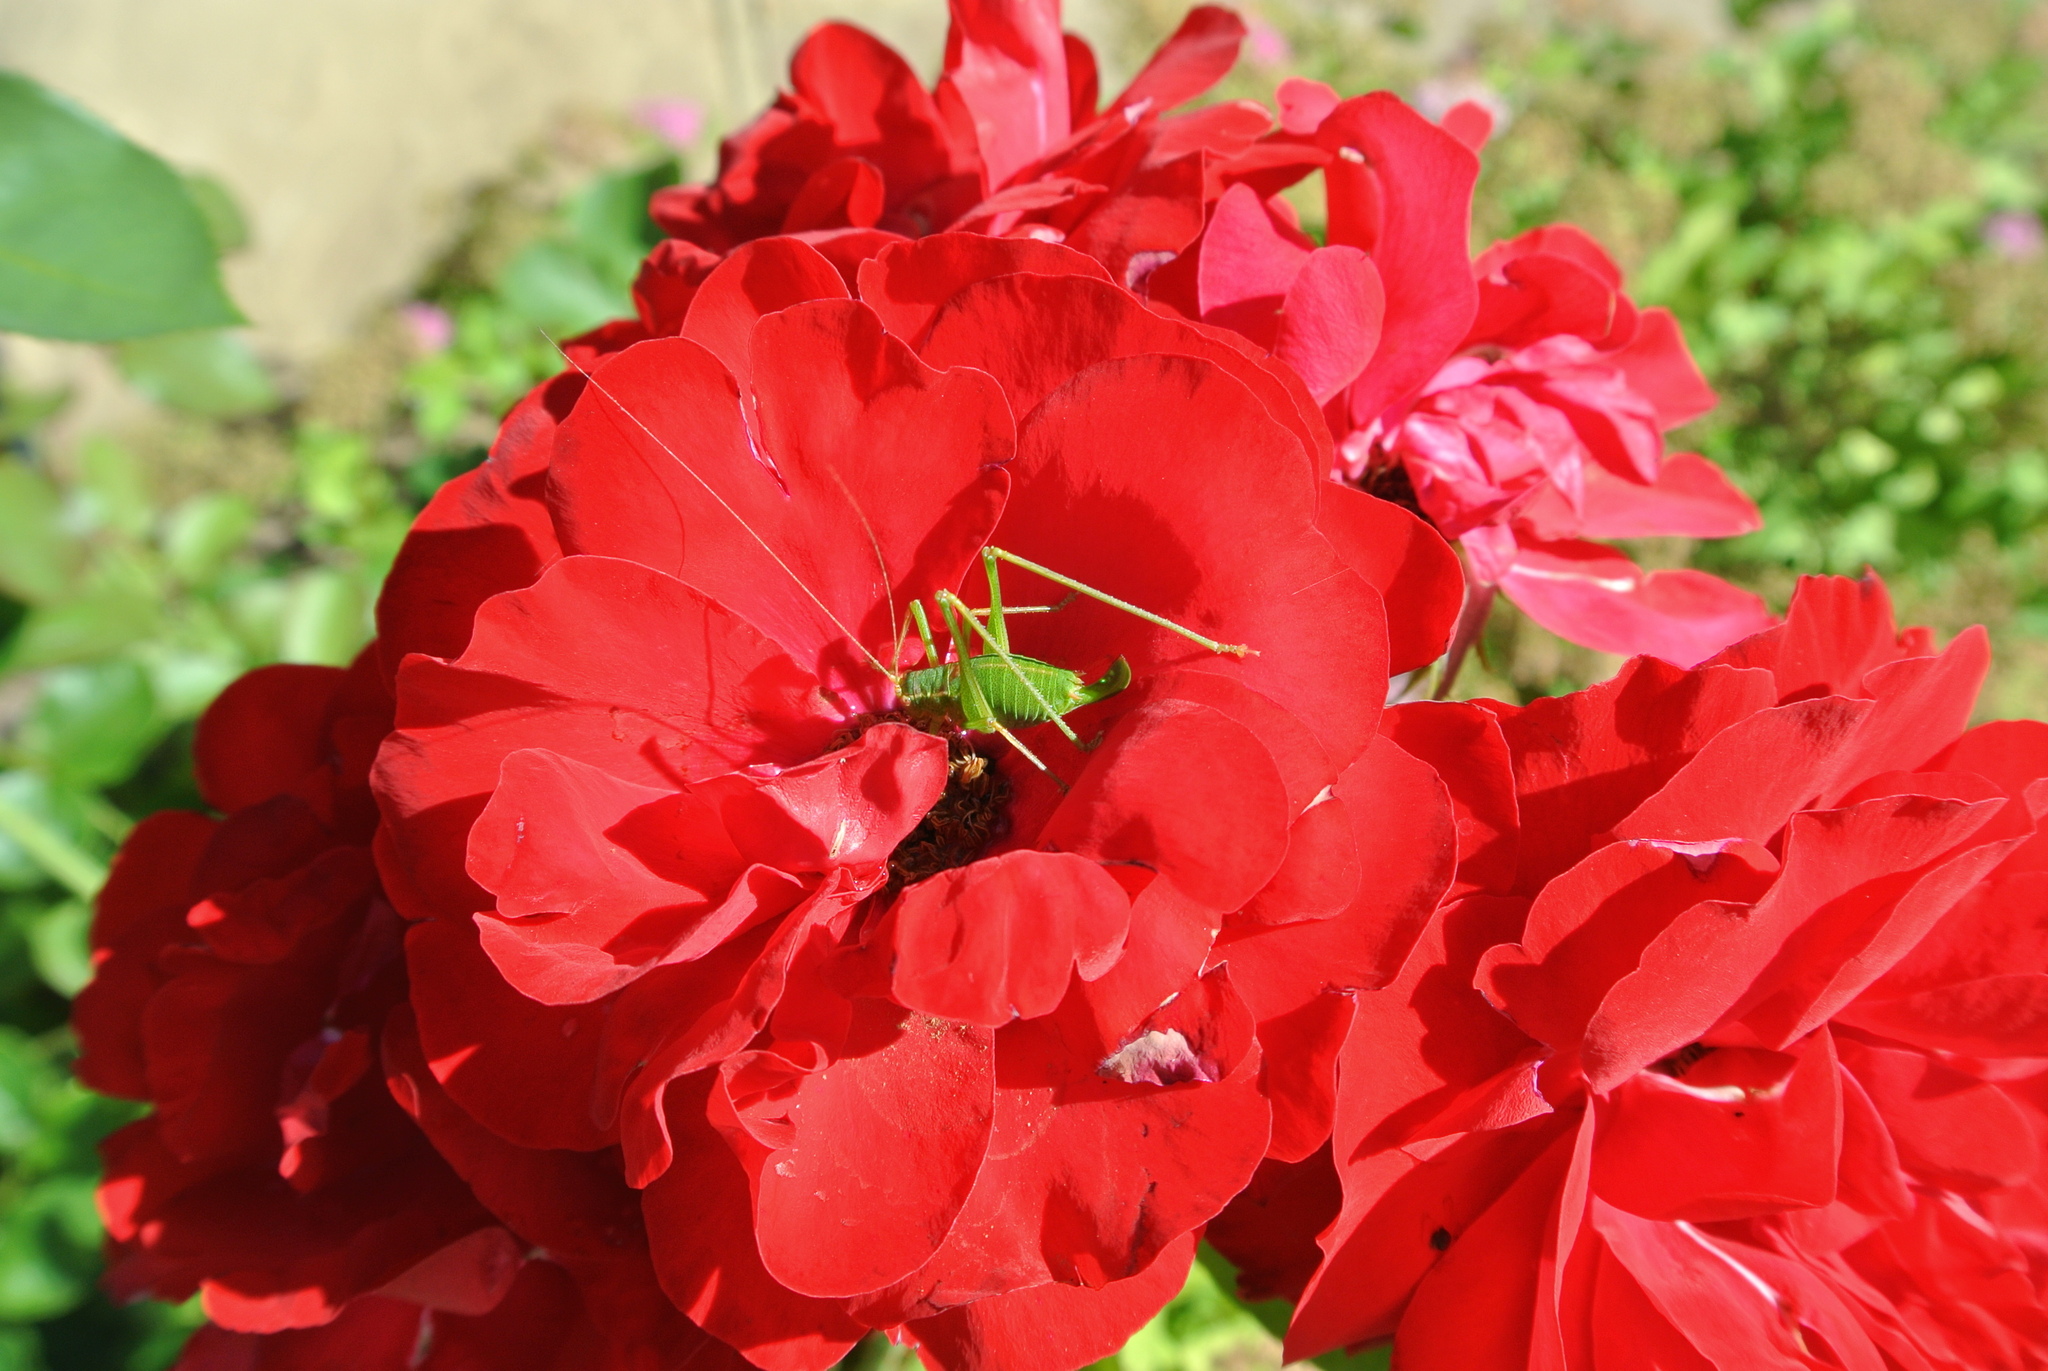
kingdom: Animalia
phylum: Arthropoda
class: Insecta
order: Orthoptera
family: Tettigoniidae
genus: Leptophyes
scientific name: Leptophyes punctatissima
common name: Speckled bush-cricket
